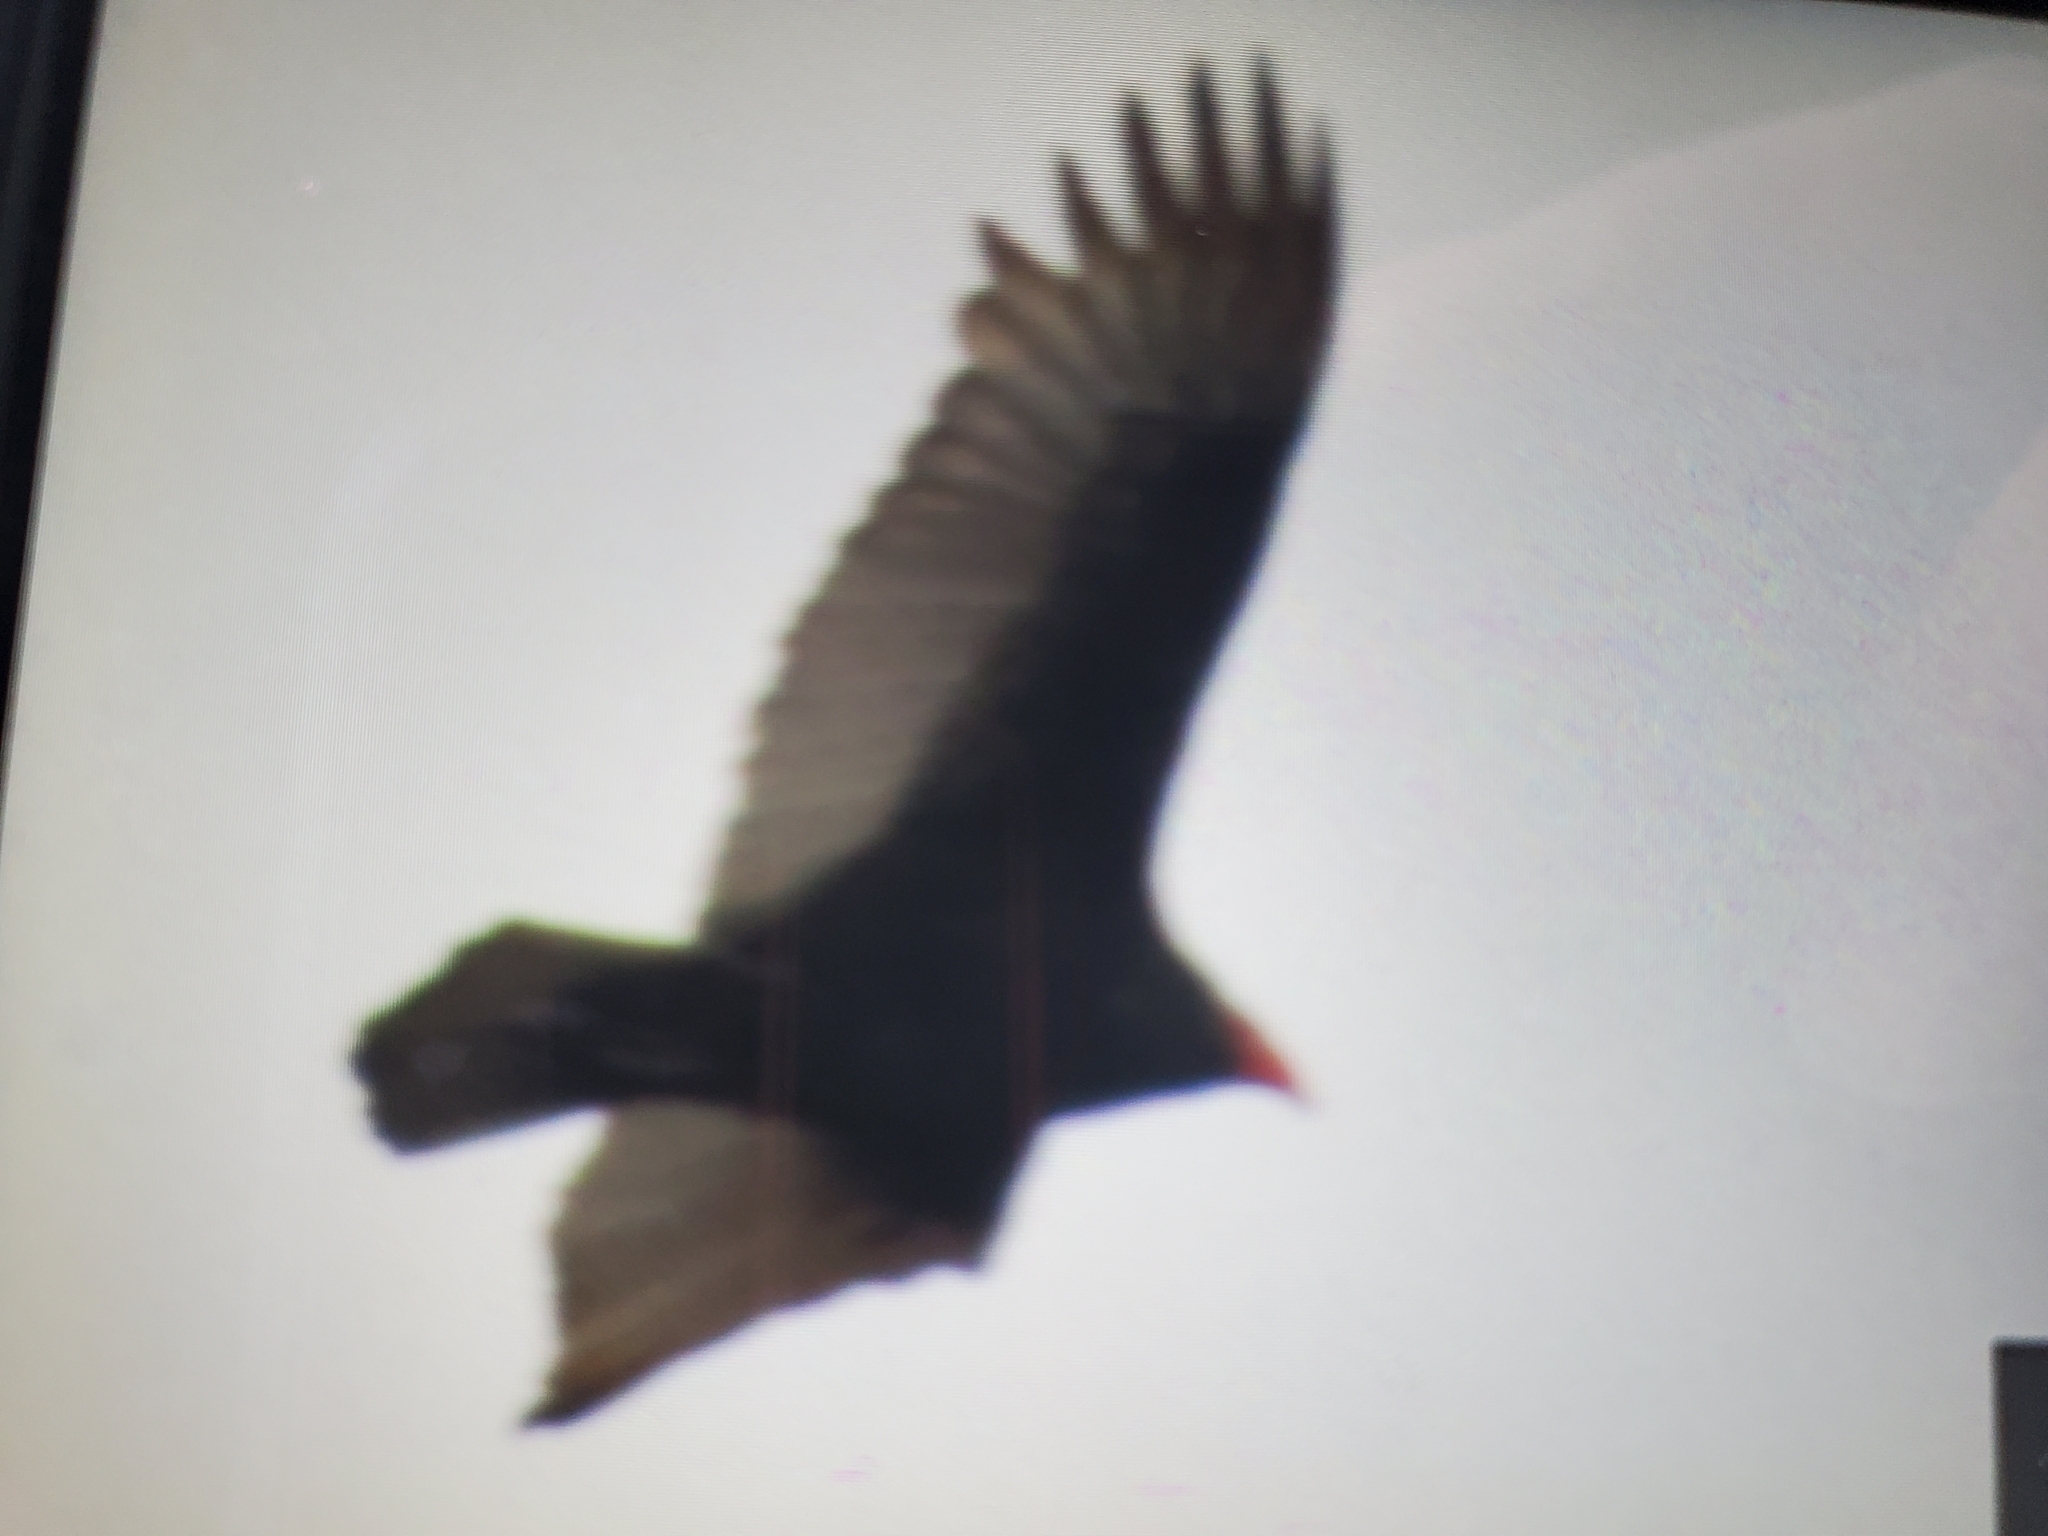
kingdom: Animalia
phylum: Chordata
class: Aves
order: Accipitriformes
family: Cathartidae
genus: Cathartes
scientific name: Cathartes aura
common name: Turkey vulture
